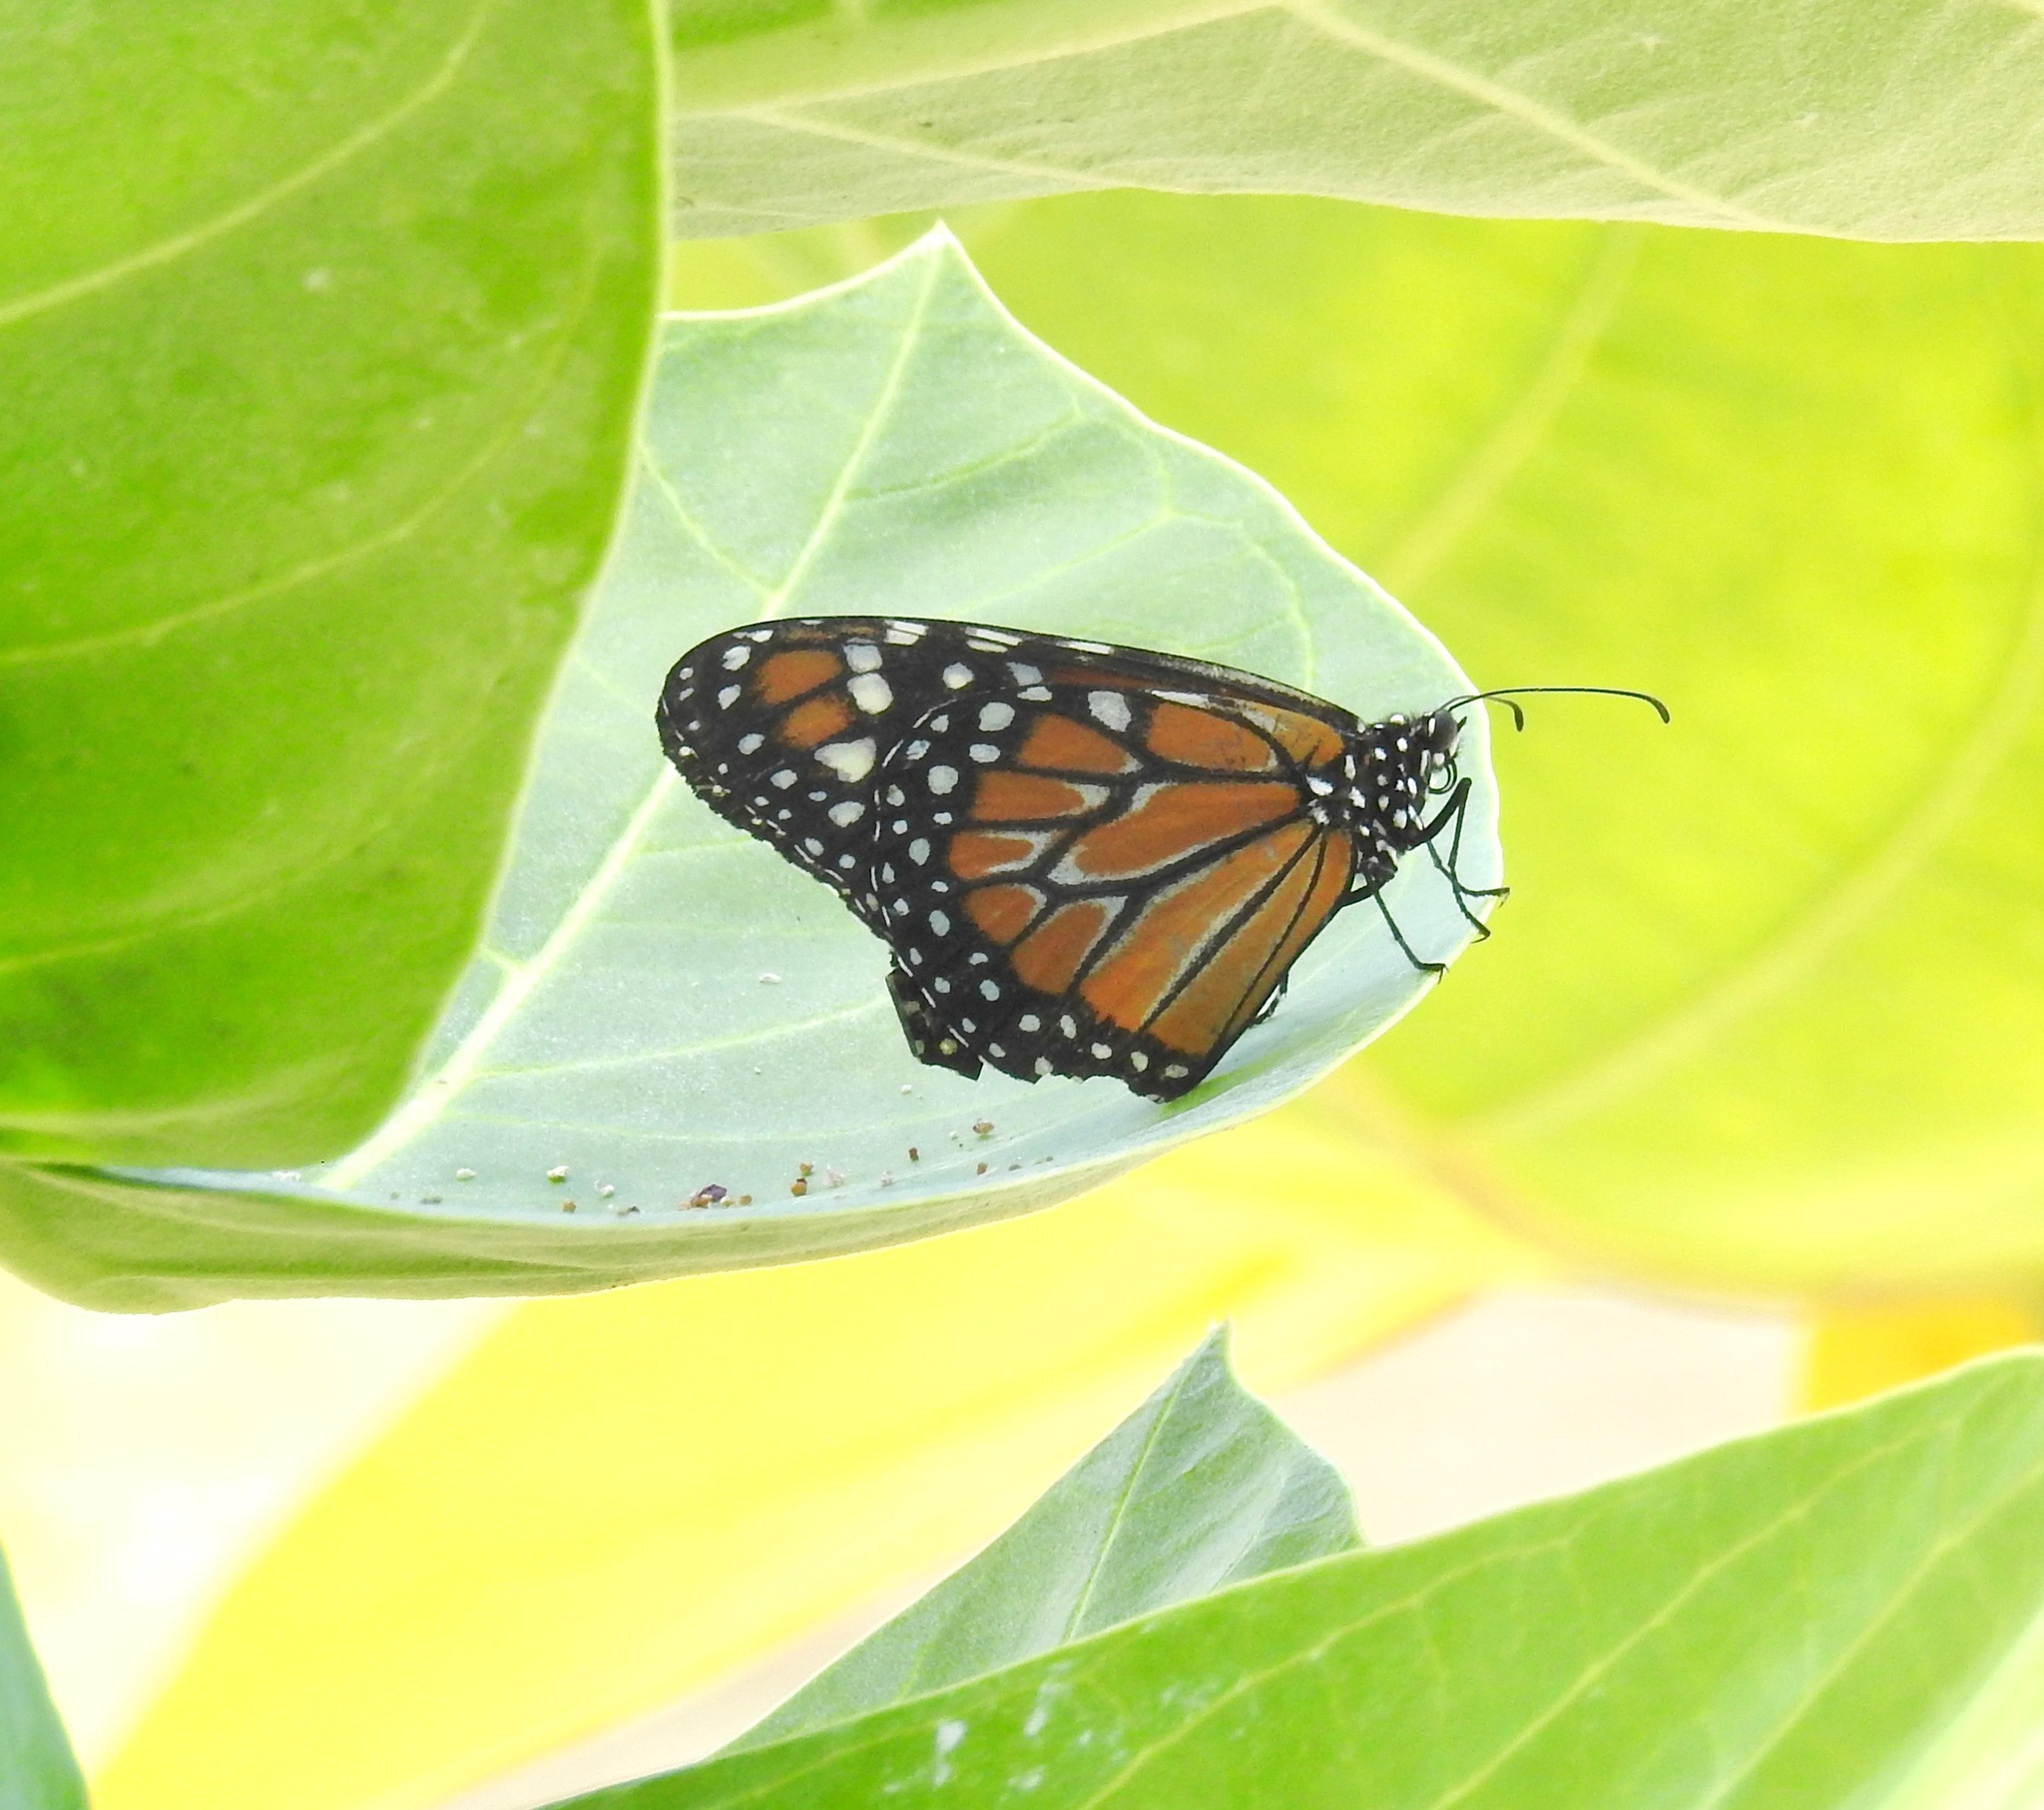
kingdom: Animalia
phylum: Arthropoda
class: Insecta
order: Lepidoptera
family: Nymphalidae
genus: Danaus
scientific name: Danaus erippus
